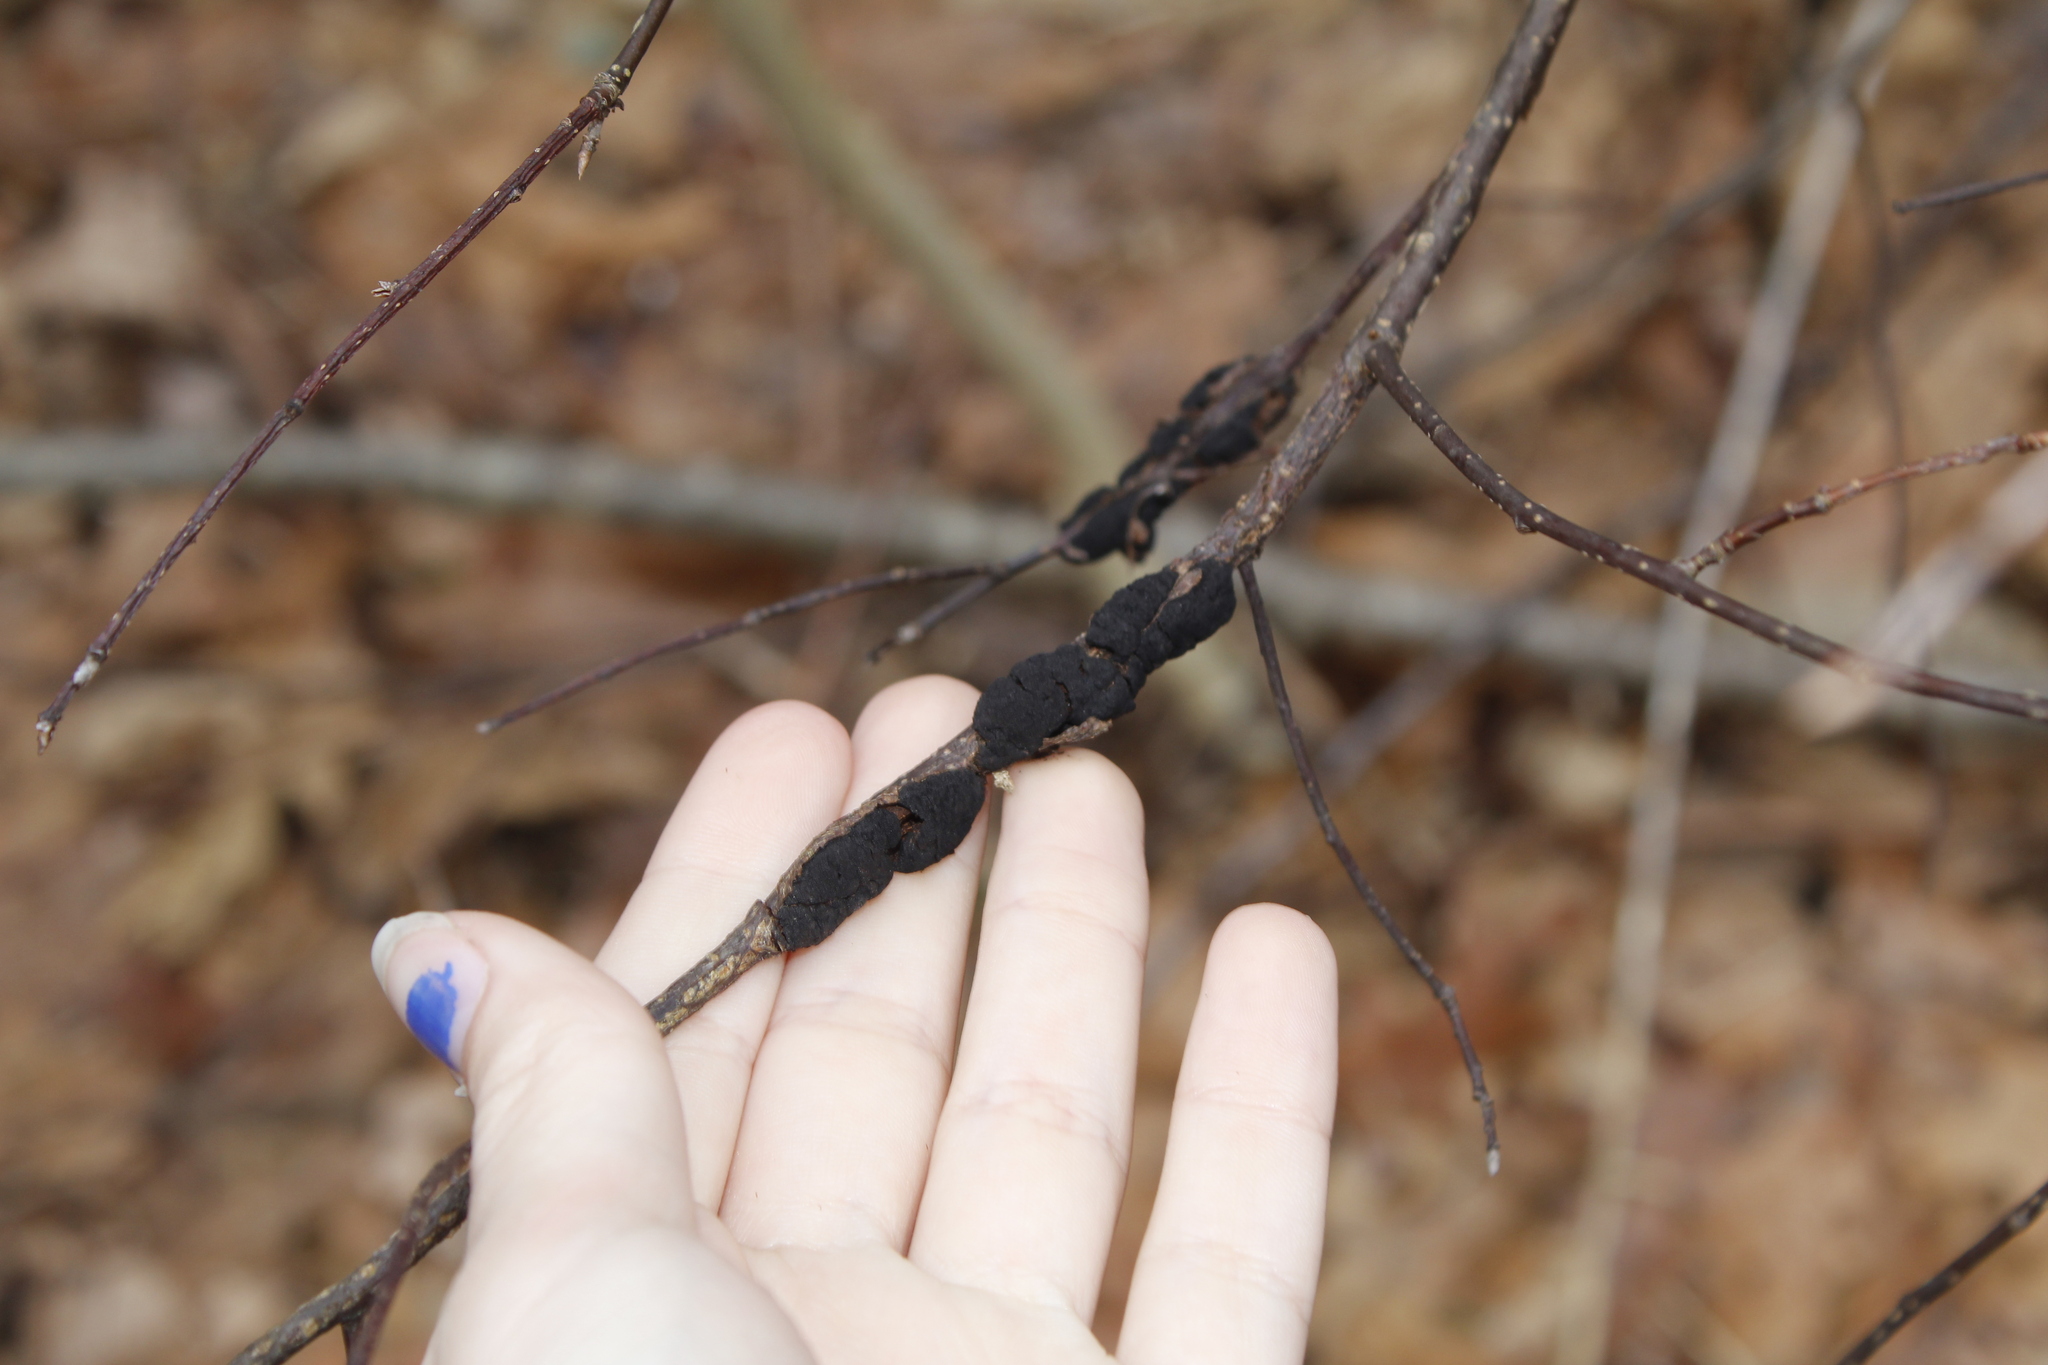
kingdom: Fungi
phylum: Ascomycota
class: Dothideomycetes
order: Venturiales
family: Venturiaceae
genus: Apiosporina
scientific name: Apiosporina morbosa
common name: Black knot
